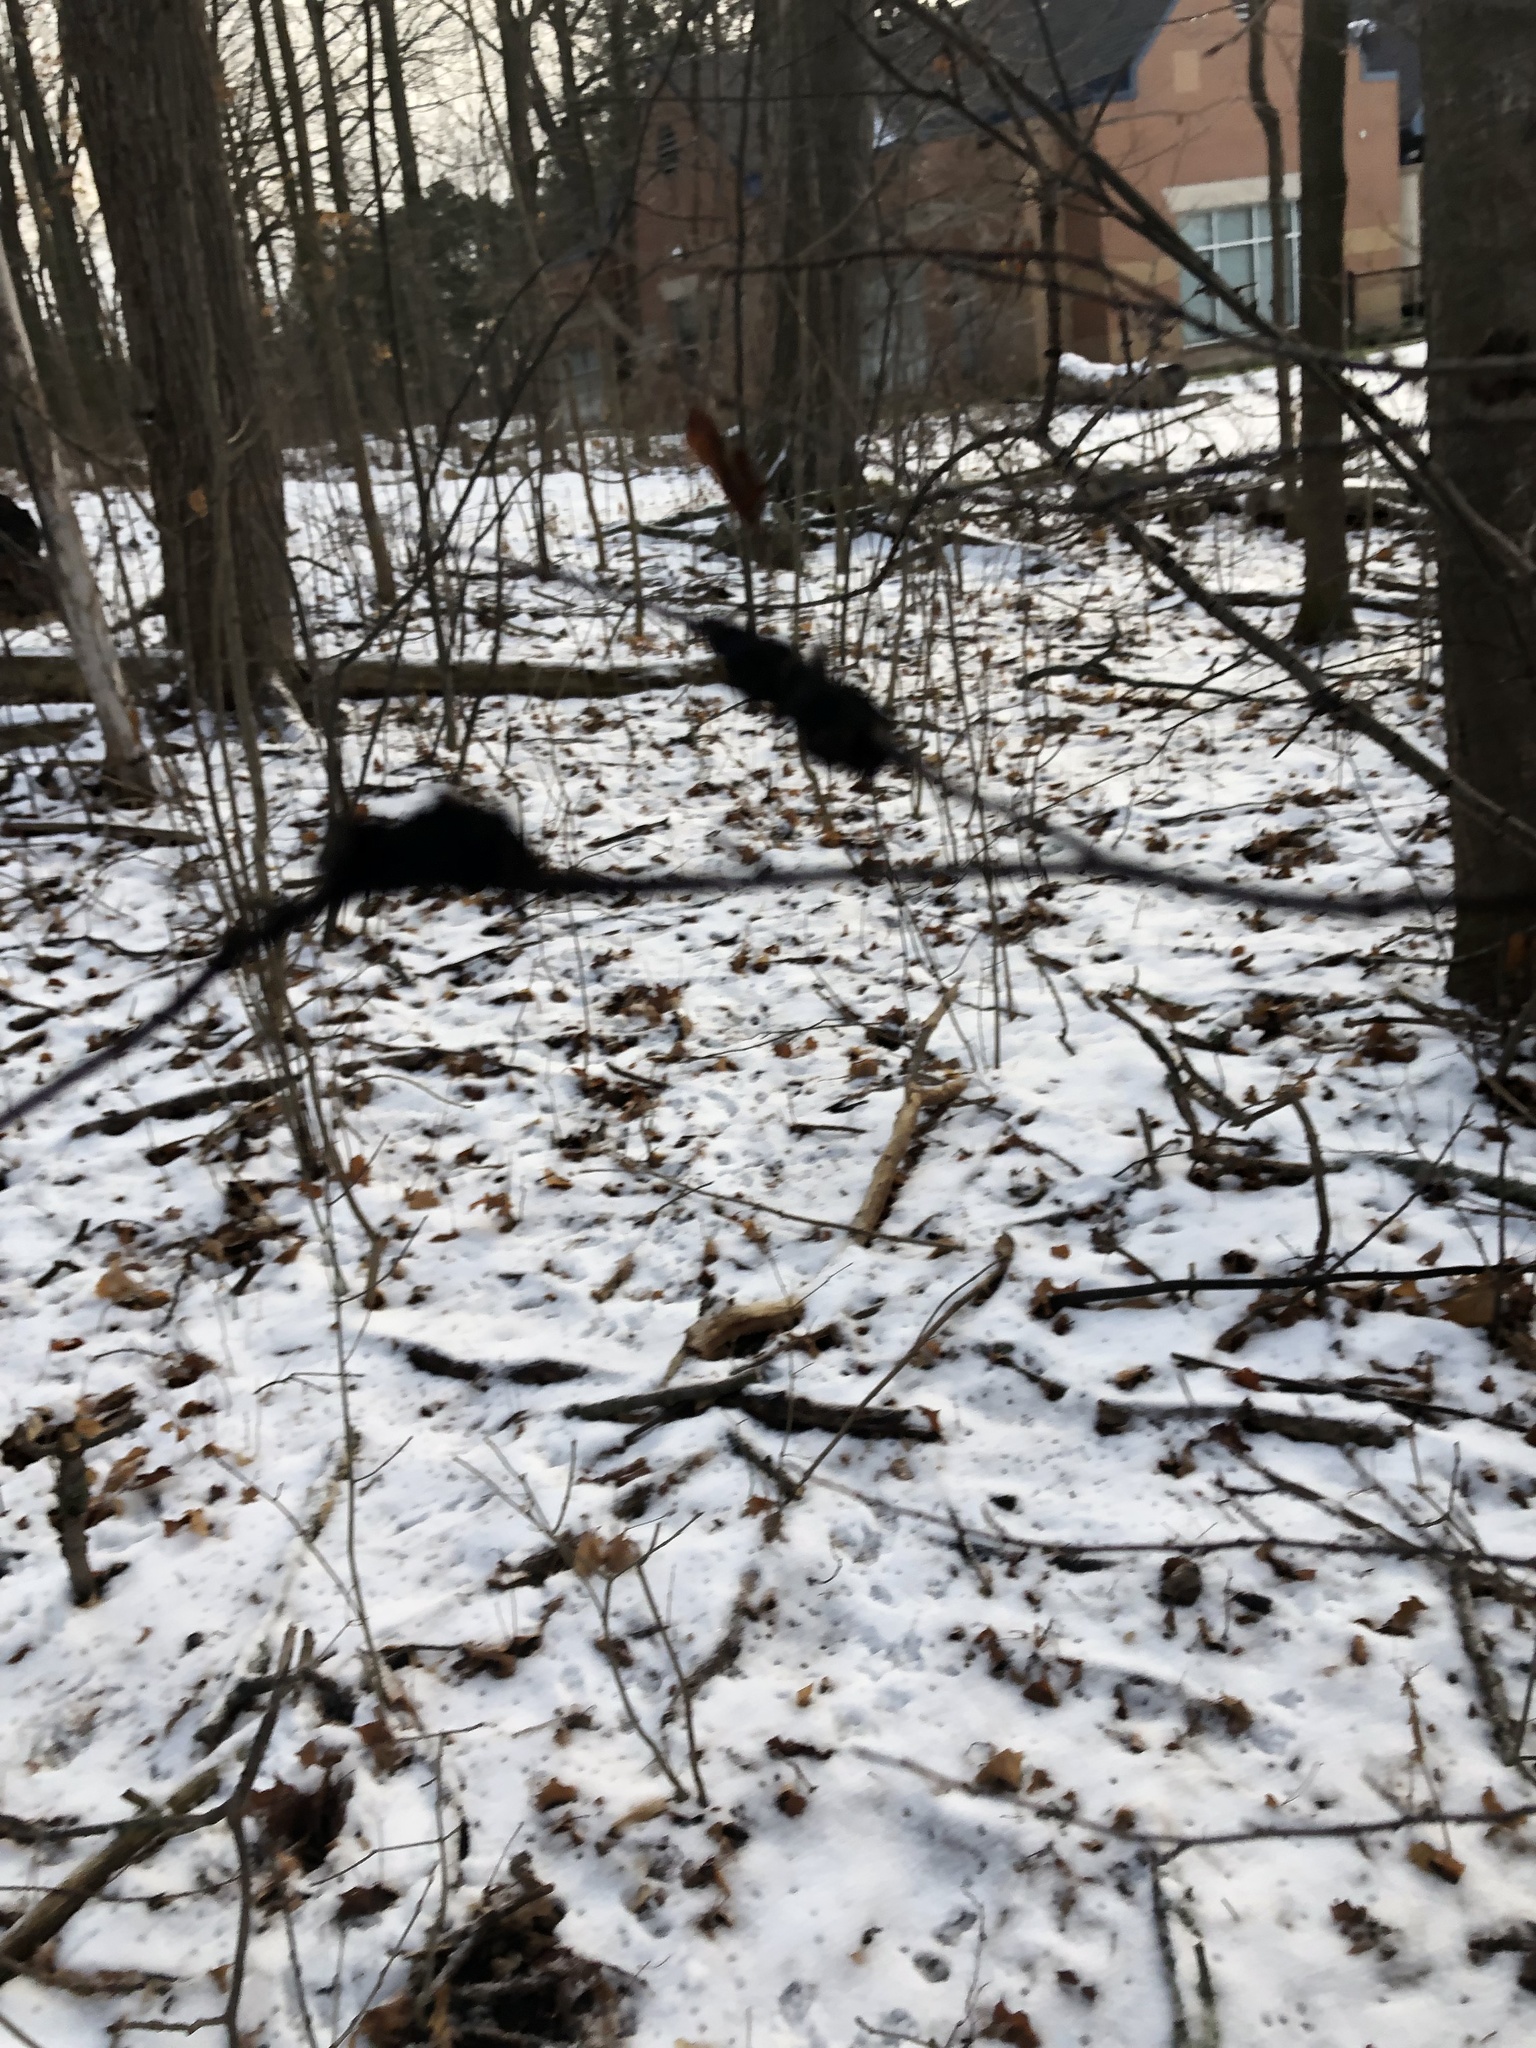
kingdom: Fungi
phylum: Ascomycota
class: Dothideomycetes
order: Venturiales
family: Venturiaceae
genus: Apiosporina
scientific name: Apiosporina morbosa
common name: Black knot
